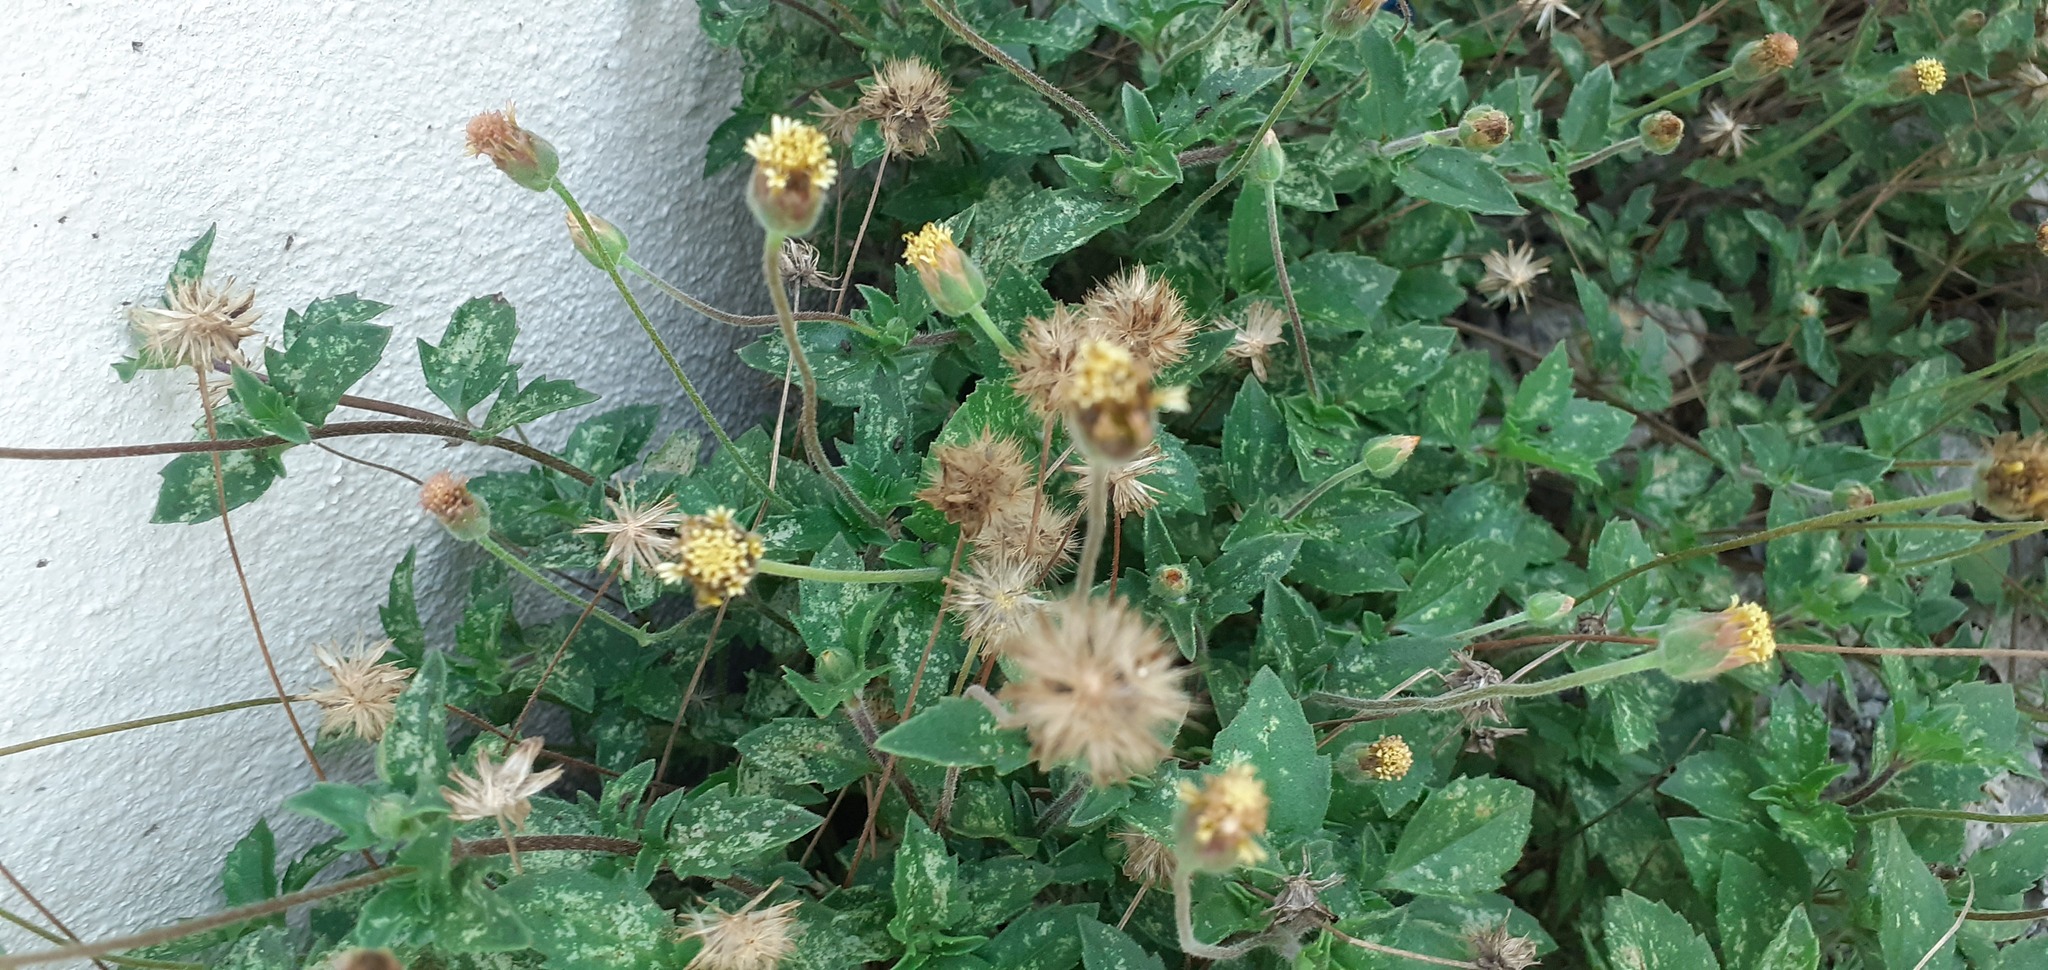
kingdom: Plantae
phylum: Tracheophyta
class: Magnoliopsida
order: Asterales
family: Asteraceae
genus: Tridax
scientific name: Tridax procumbens
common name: Coatbuttons
